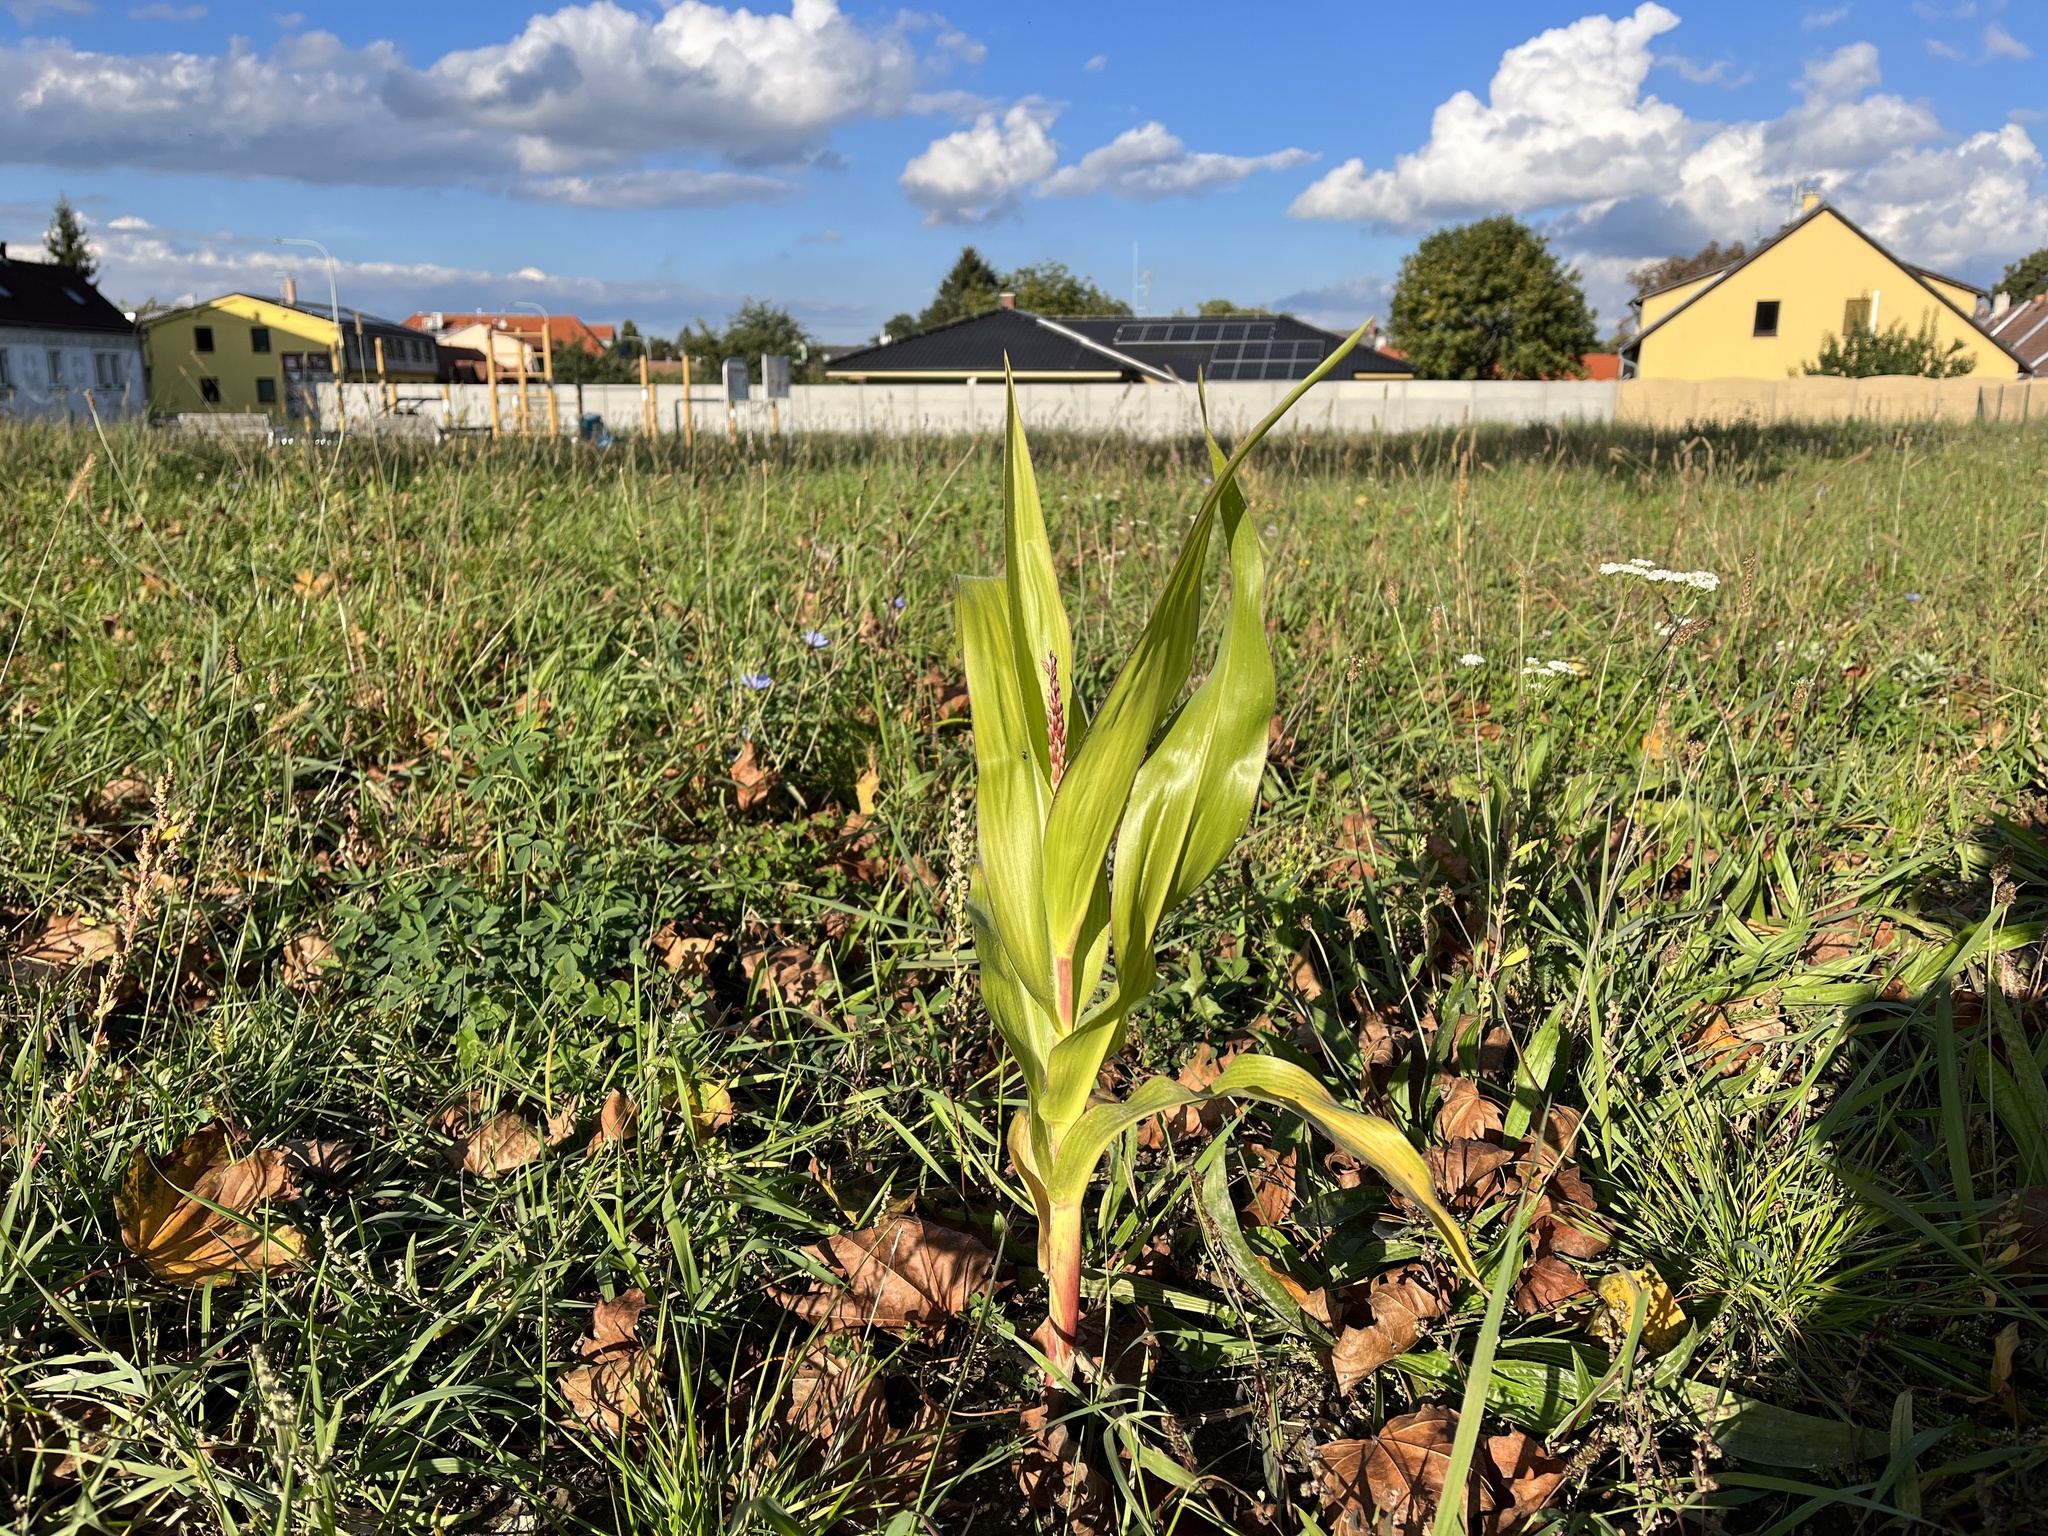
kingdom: Plantae
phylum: Tracheophyta
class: Liliopsida
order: Poales
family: Poaceae
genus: Zea
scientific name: Zea mays
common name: Maize
